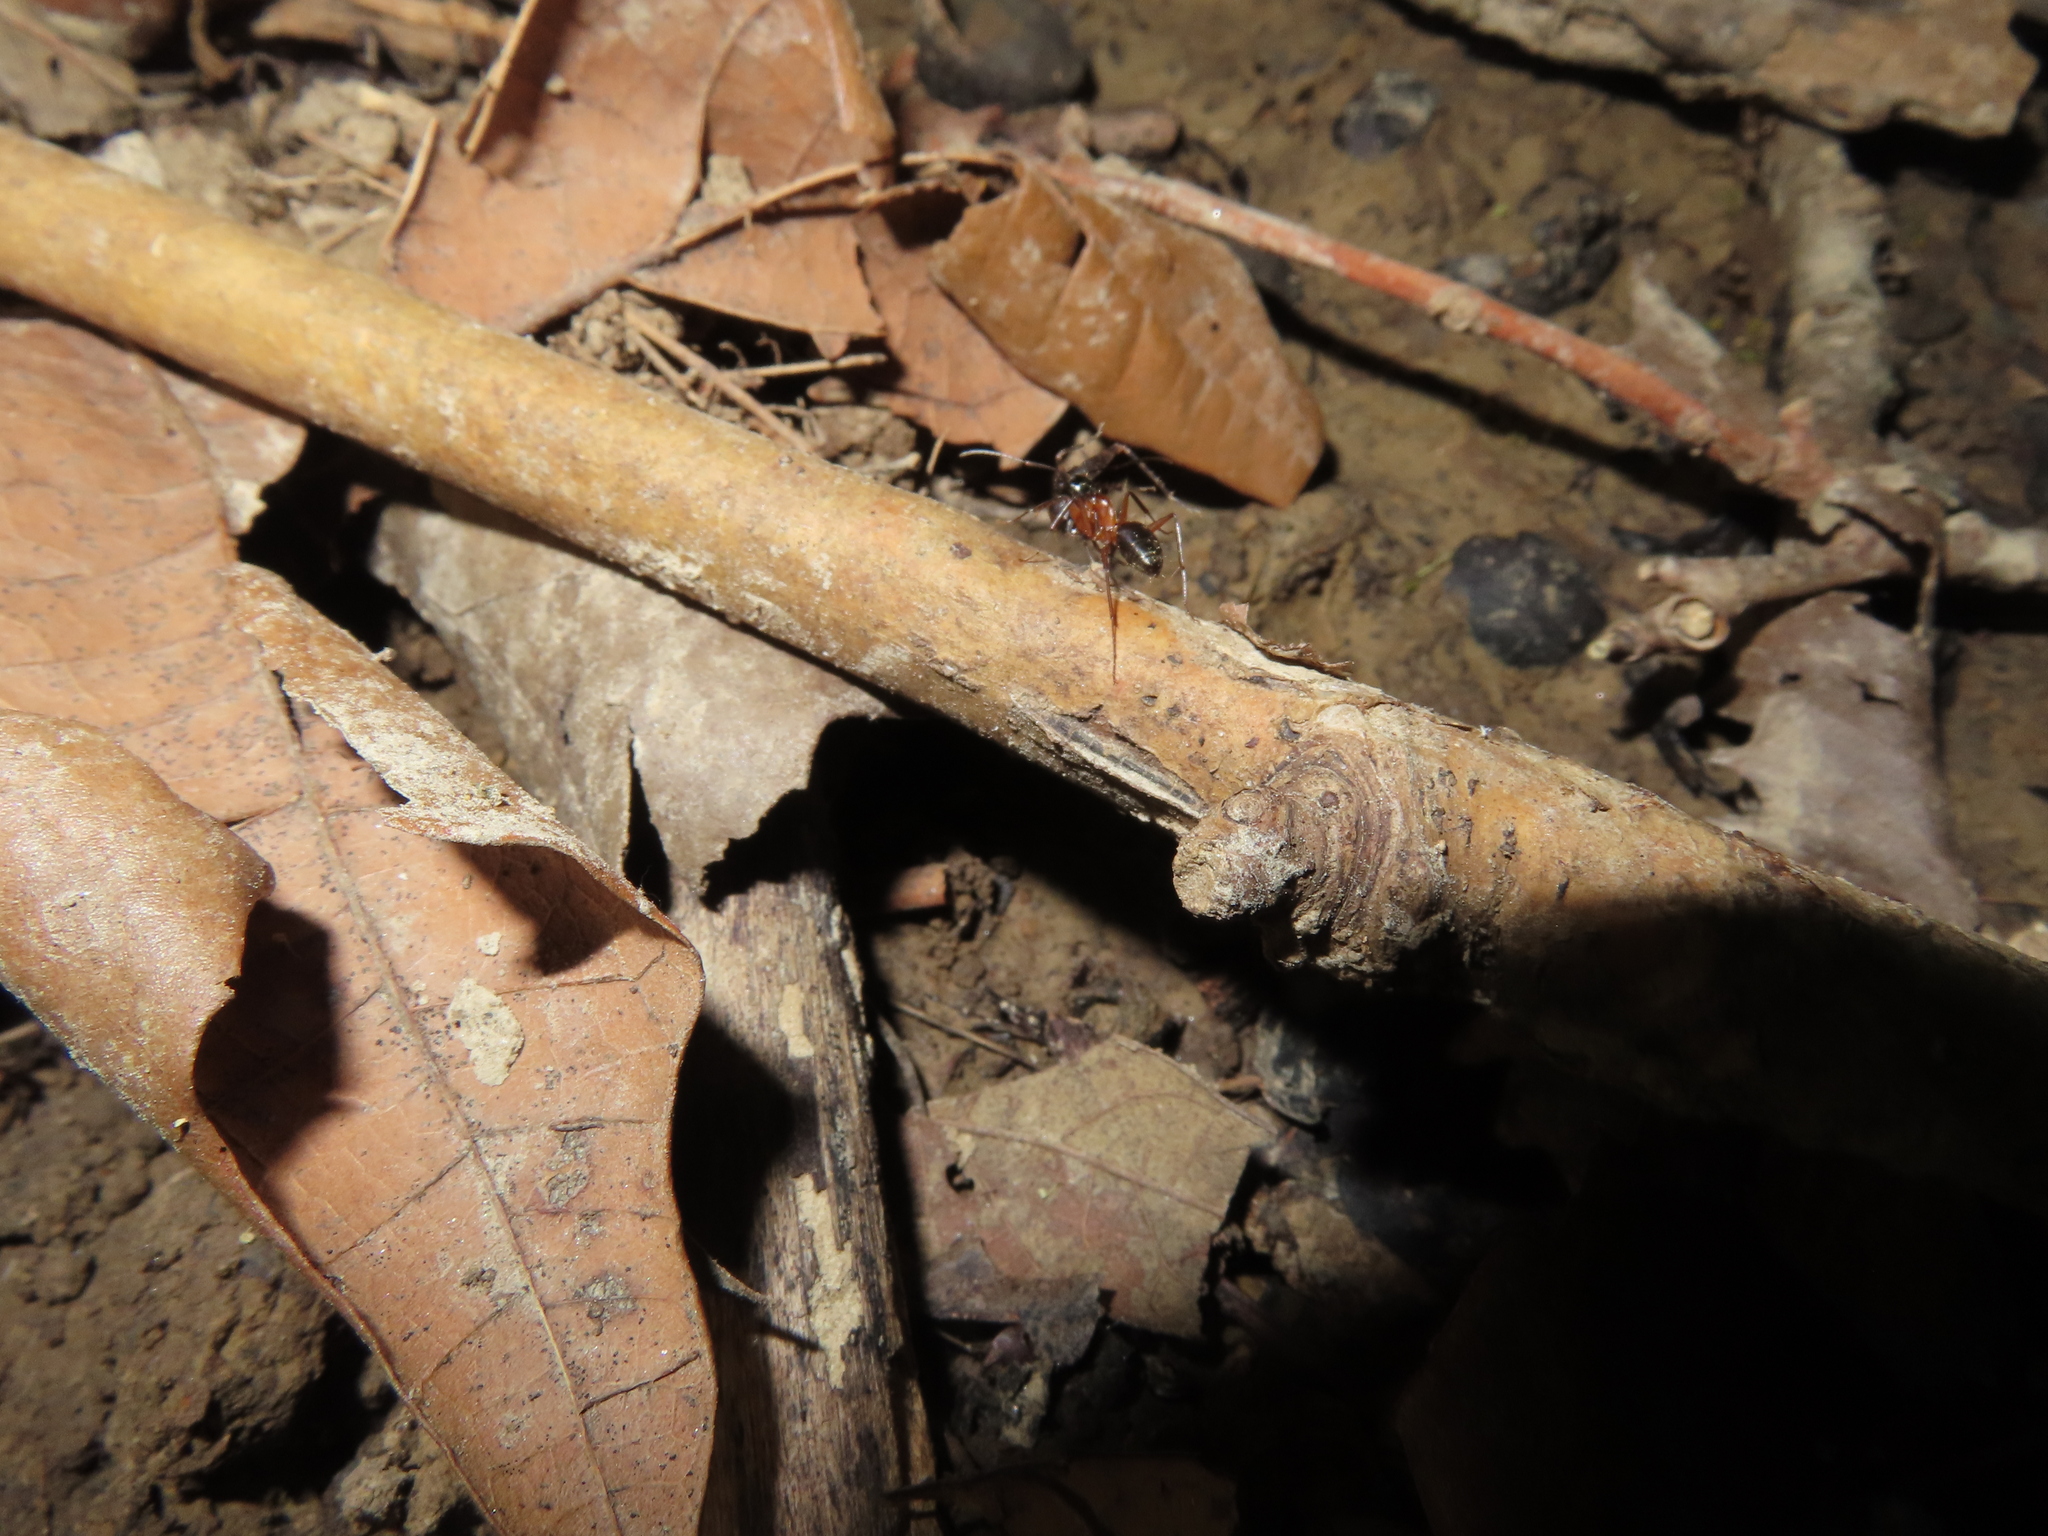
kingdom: Animalia
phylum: Arthropoda
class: Insecta
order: Hymenoptera
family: Formicidae
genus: Camponotus
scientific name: Camponotus chromaiodes
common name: Red carpenter ant
